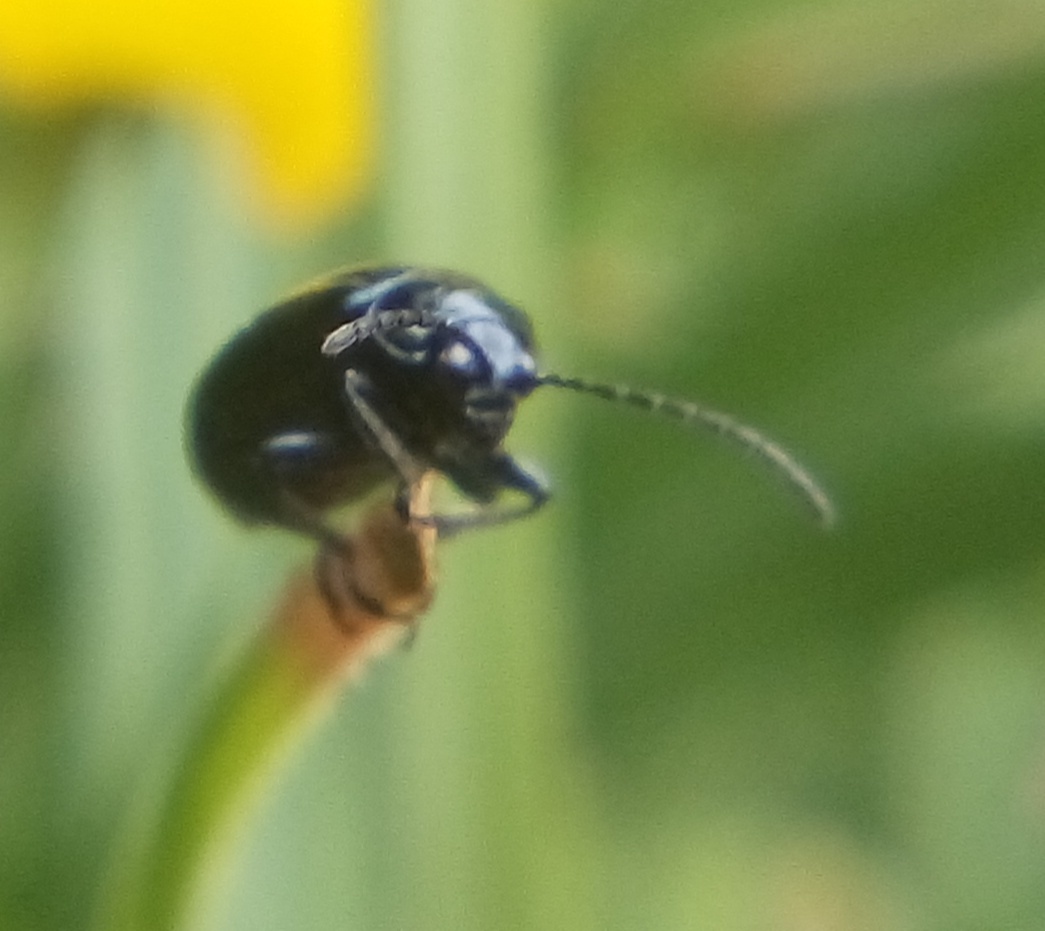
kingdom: Animalia
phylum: Arthropoda
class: Insecta
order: Coleoptera
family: Chrysomelidae
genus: Agelastica
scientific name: Agelastica alni
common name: Alder leaf beetle
